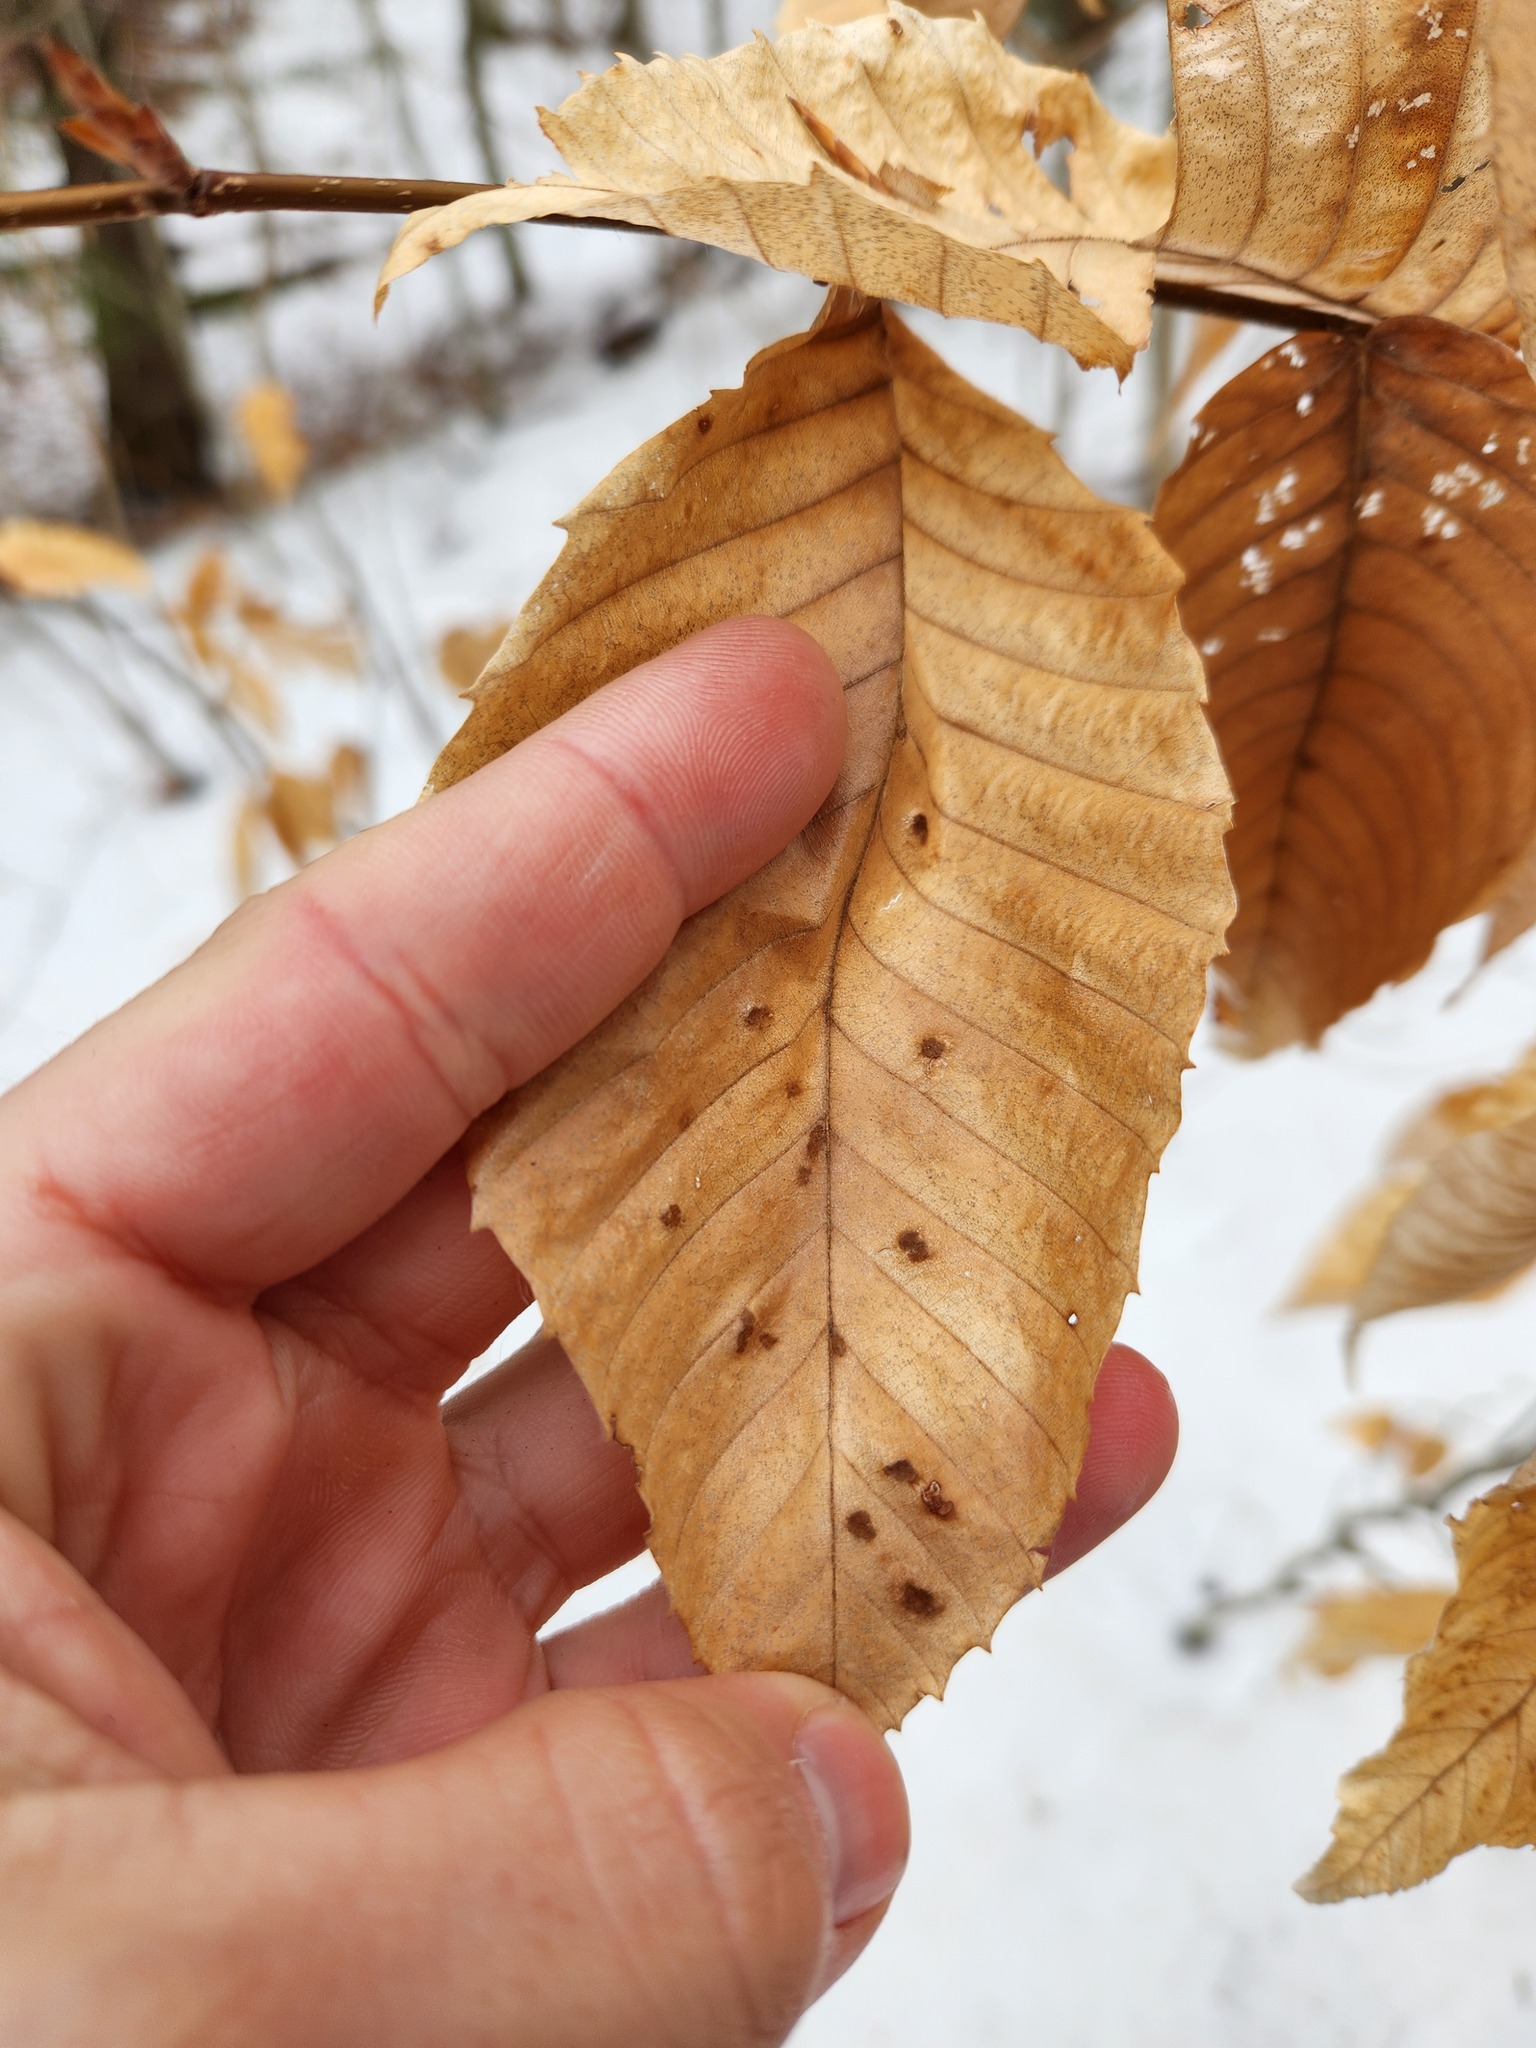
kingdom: Plantae
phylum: Tracheophyta
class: Magnoliopsida
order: Fagales
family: Fagaceae
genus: Fagus
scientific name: Fagus grandifolia
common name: American beech
